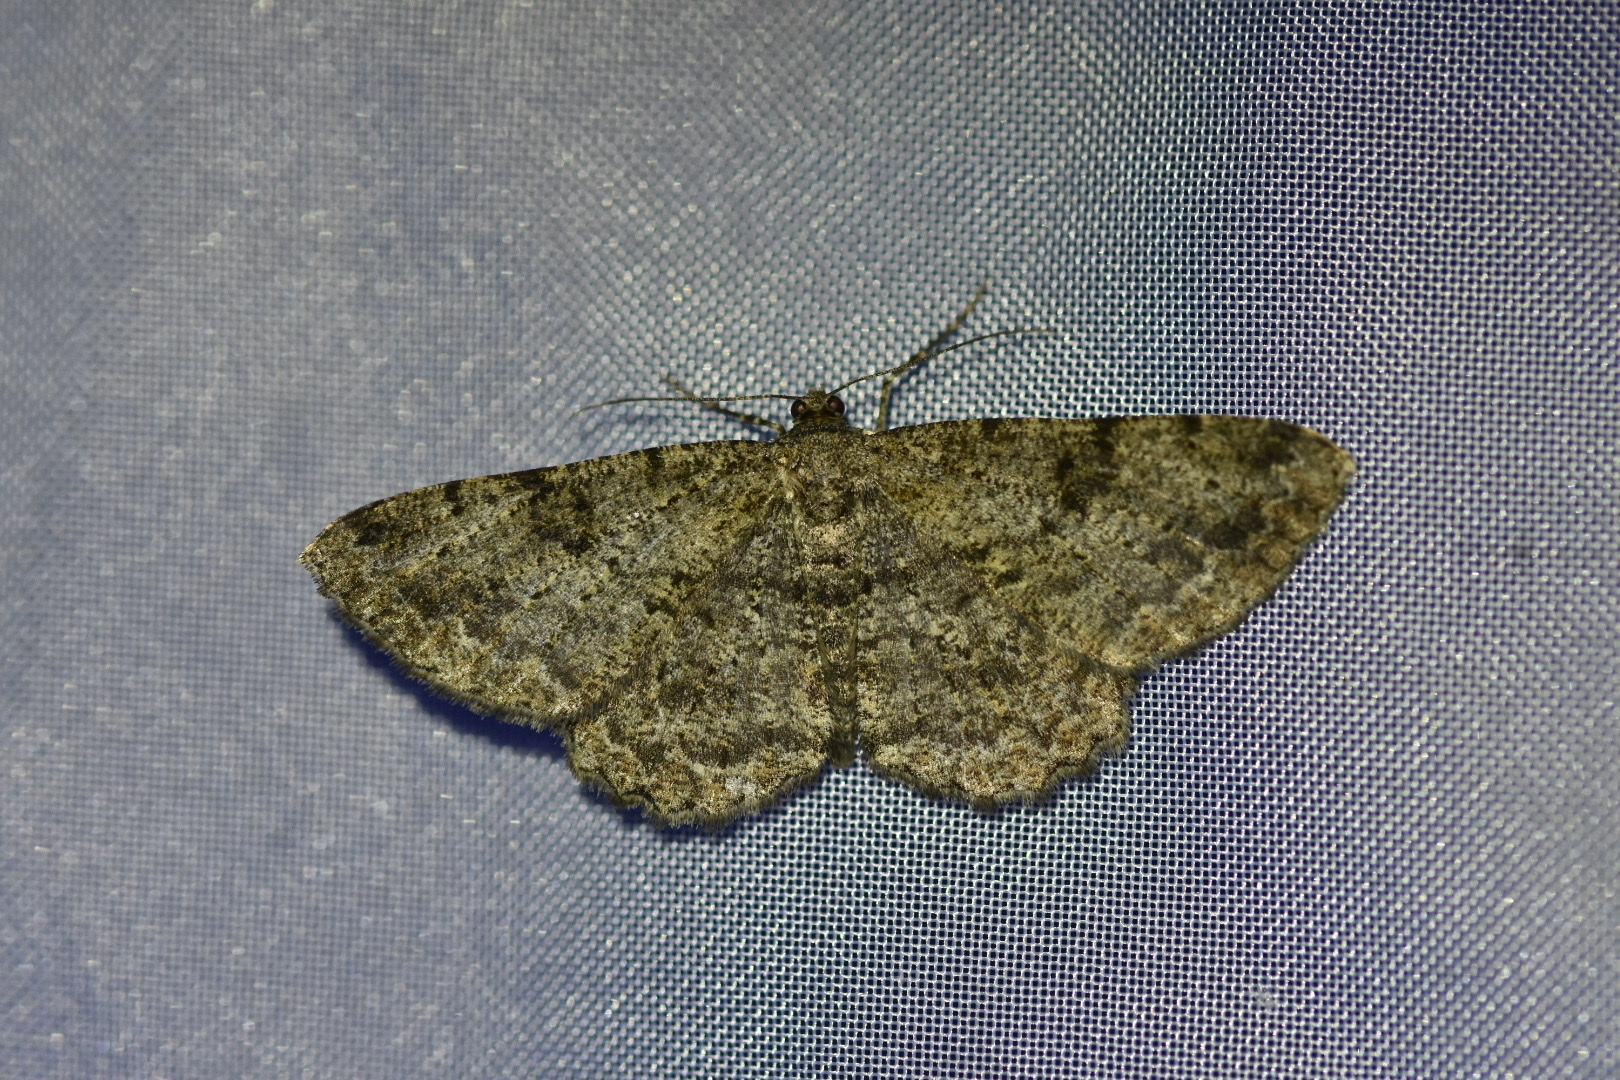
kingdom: Animalia
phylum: Arthropoda
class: Insecta
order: Lepidoptera
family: Geometridae
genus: Peribatodes
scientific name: Peribatodes rhomboidaria
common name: Willow beauty
